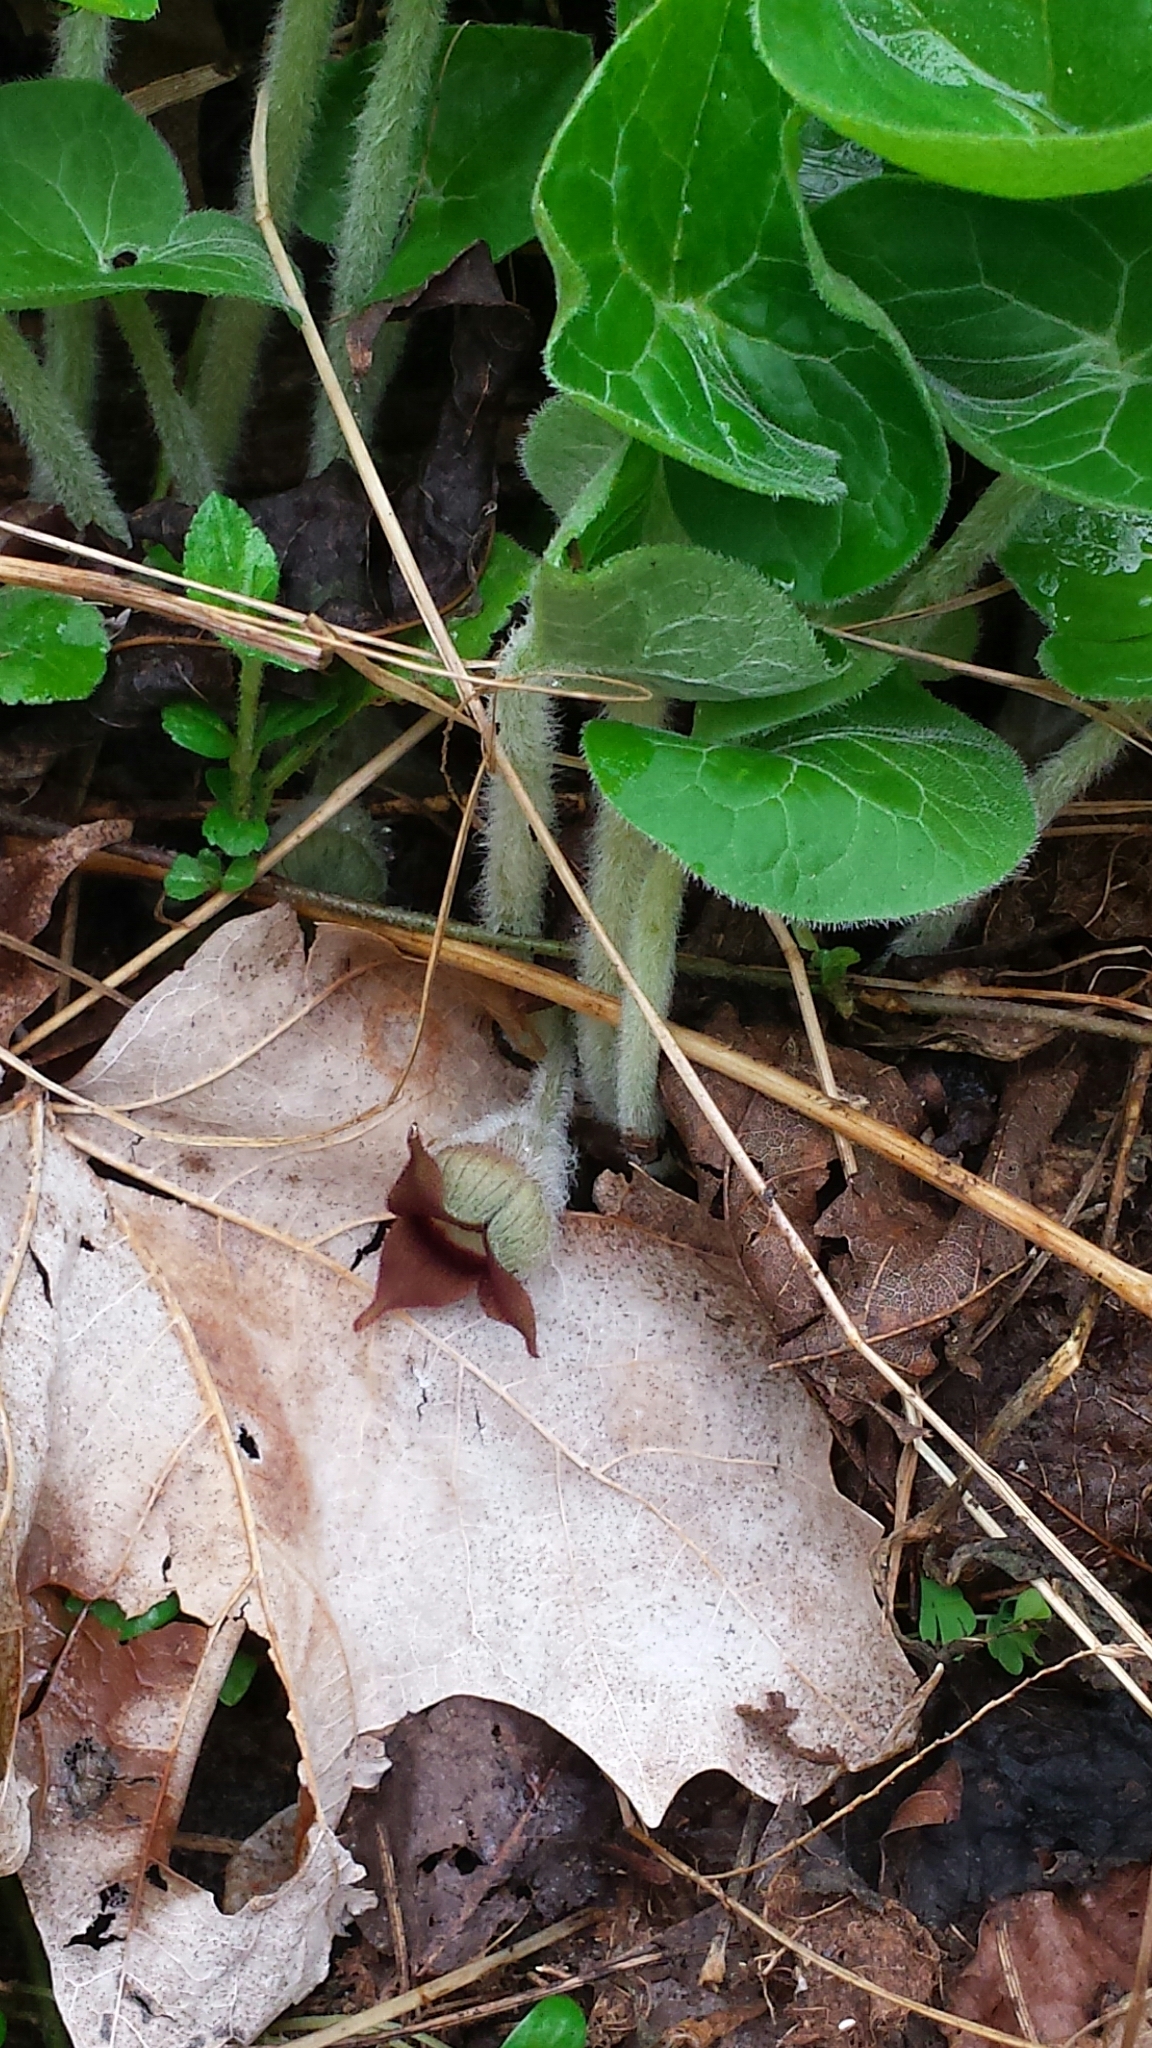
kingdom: Plantae
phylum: Tracheophyta
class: Magnoliopsida
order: Piperales
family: Aristolochiaceae
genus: Asarum
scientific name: Asarum canadense
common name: Wild ginger
